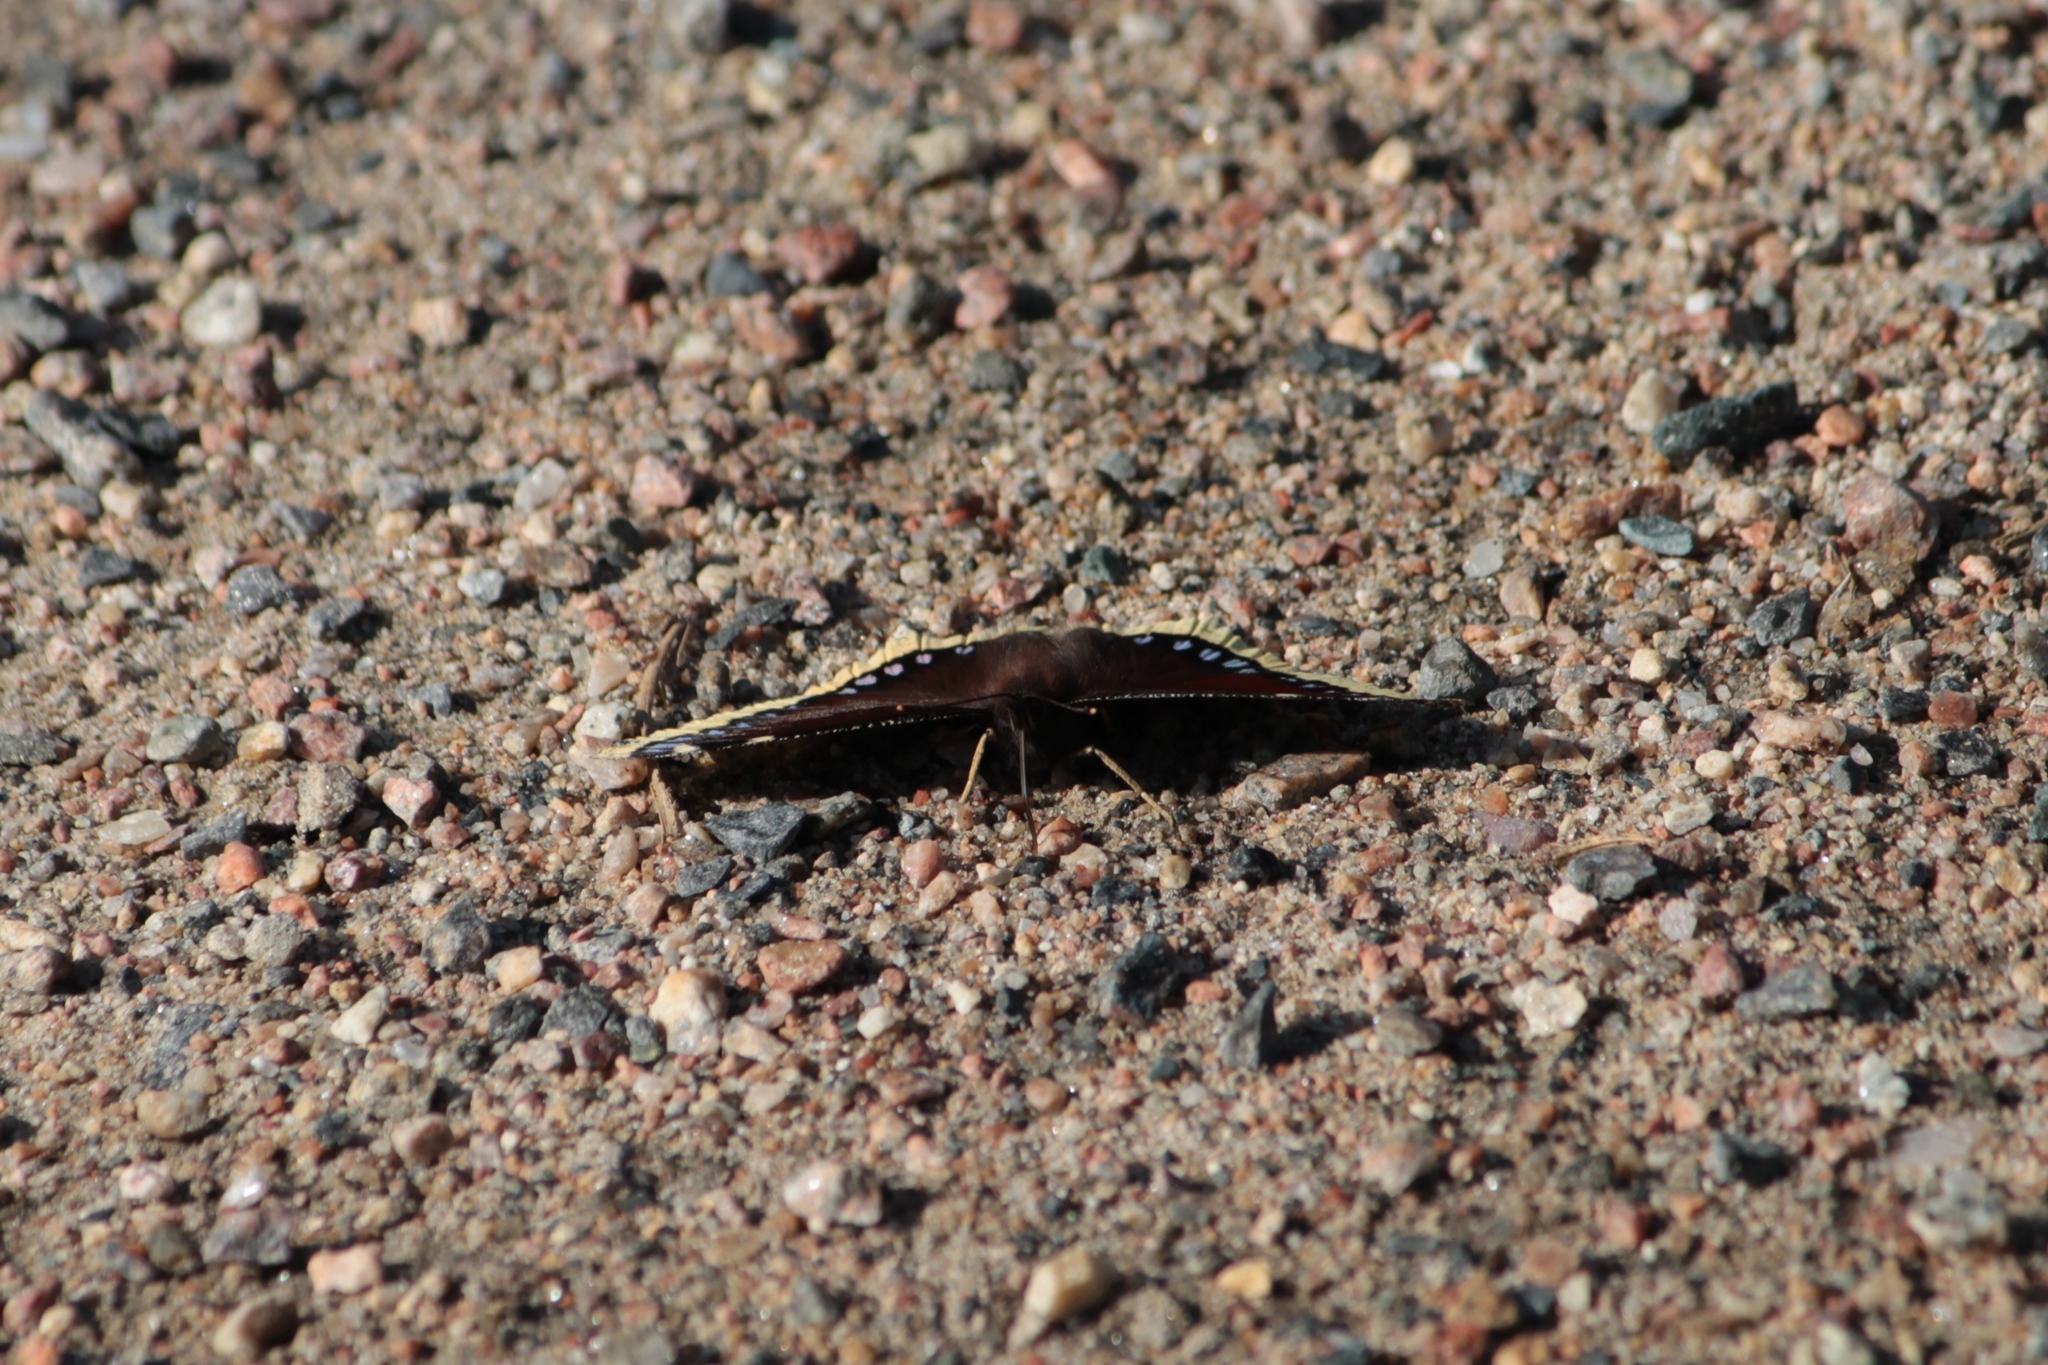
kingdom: Animalia
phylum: Arthropoda
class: Insecta
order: Lepidoptera
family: Nymphalidae
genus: Nymphalis
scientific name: Nymphalis antiopa
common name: Camberwell beauty
